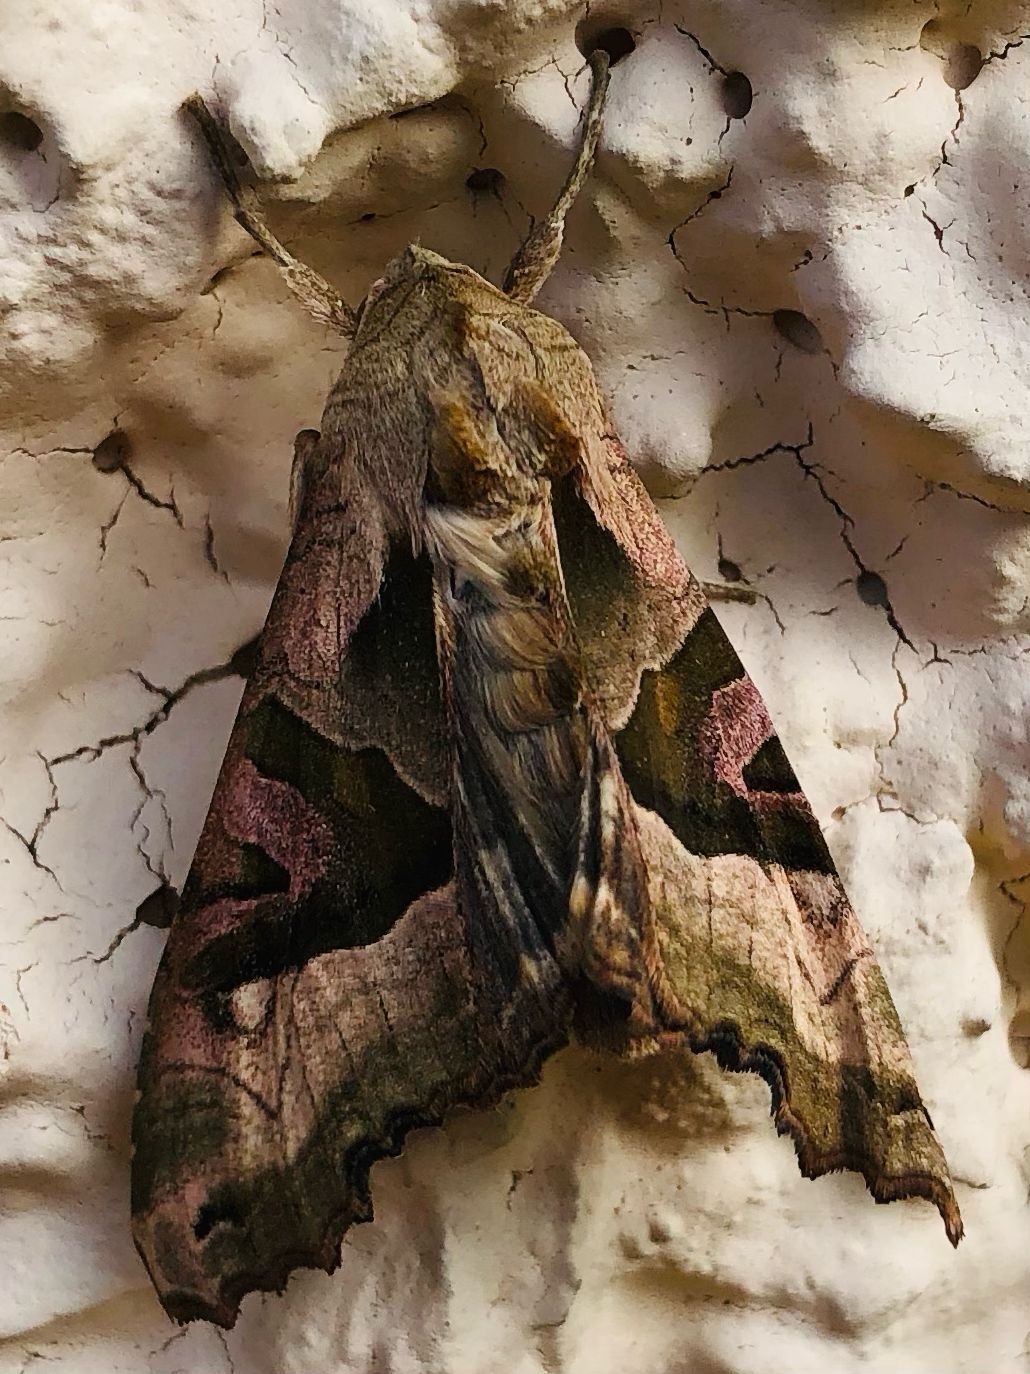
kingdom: Animalia
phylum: Arthropoda
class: Insecta
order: Lepidoptera
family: Noctuidae
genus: Phlogophora
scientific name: Phlogophora meticulosa
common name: Angle shades
